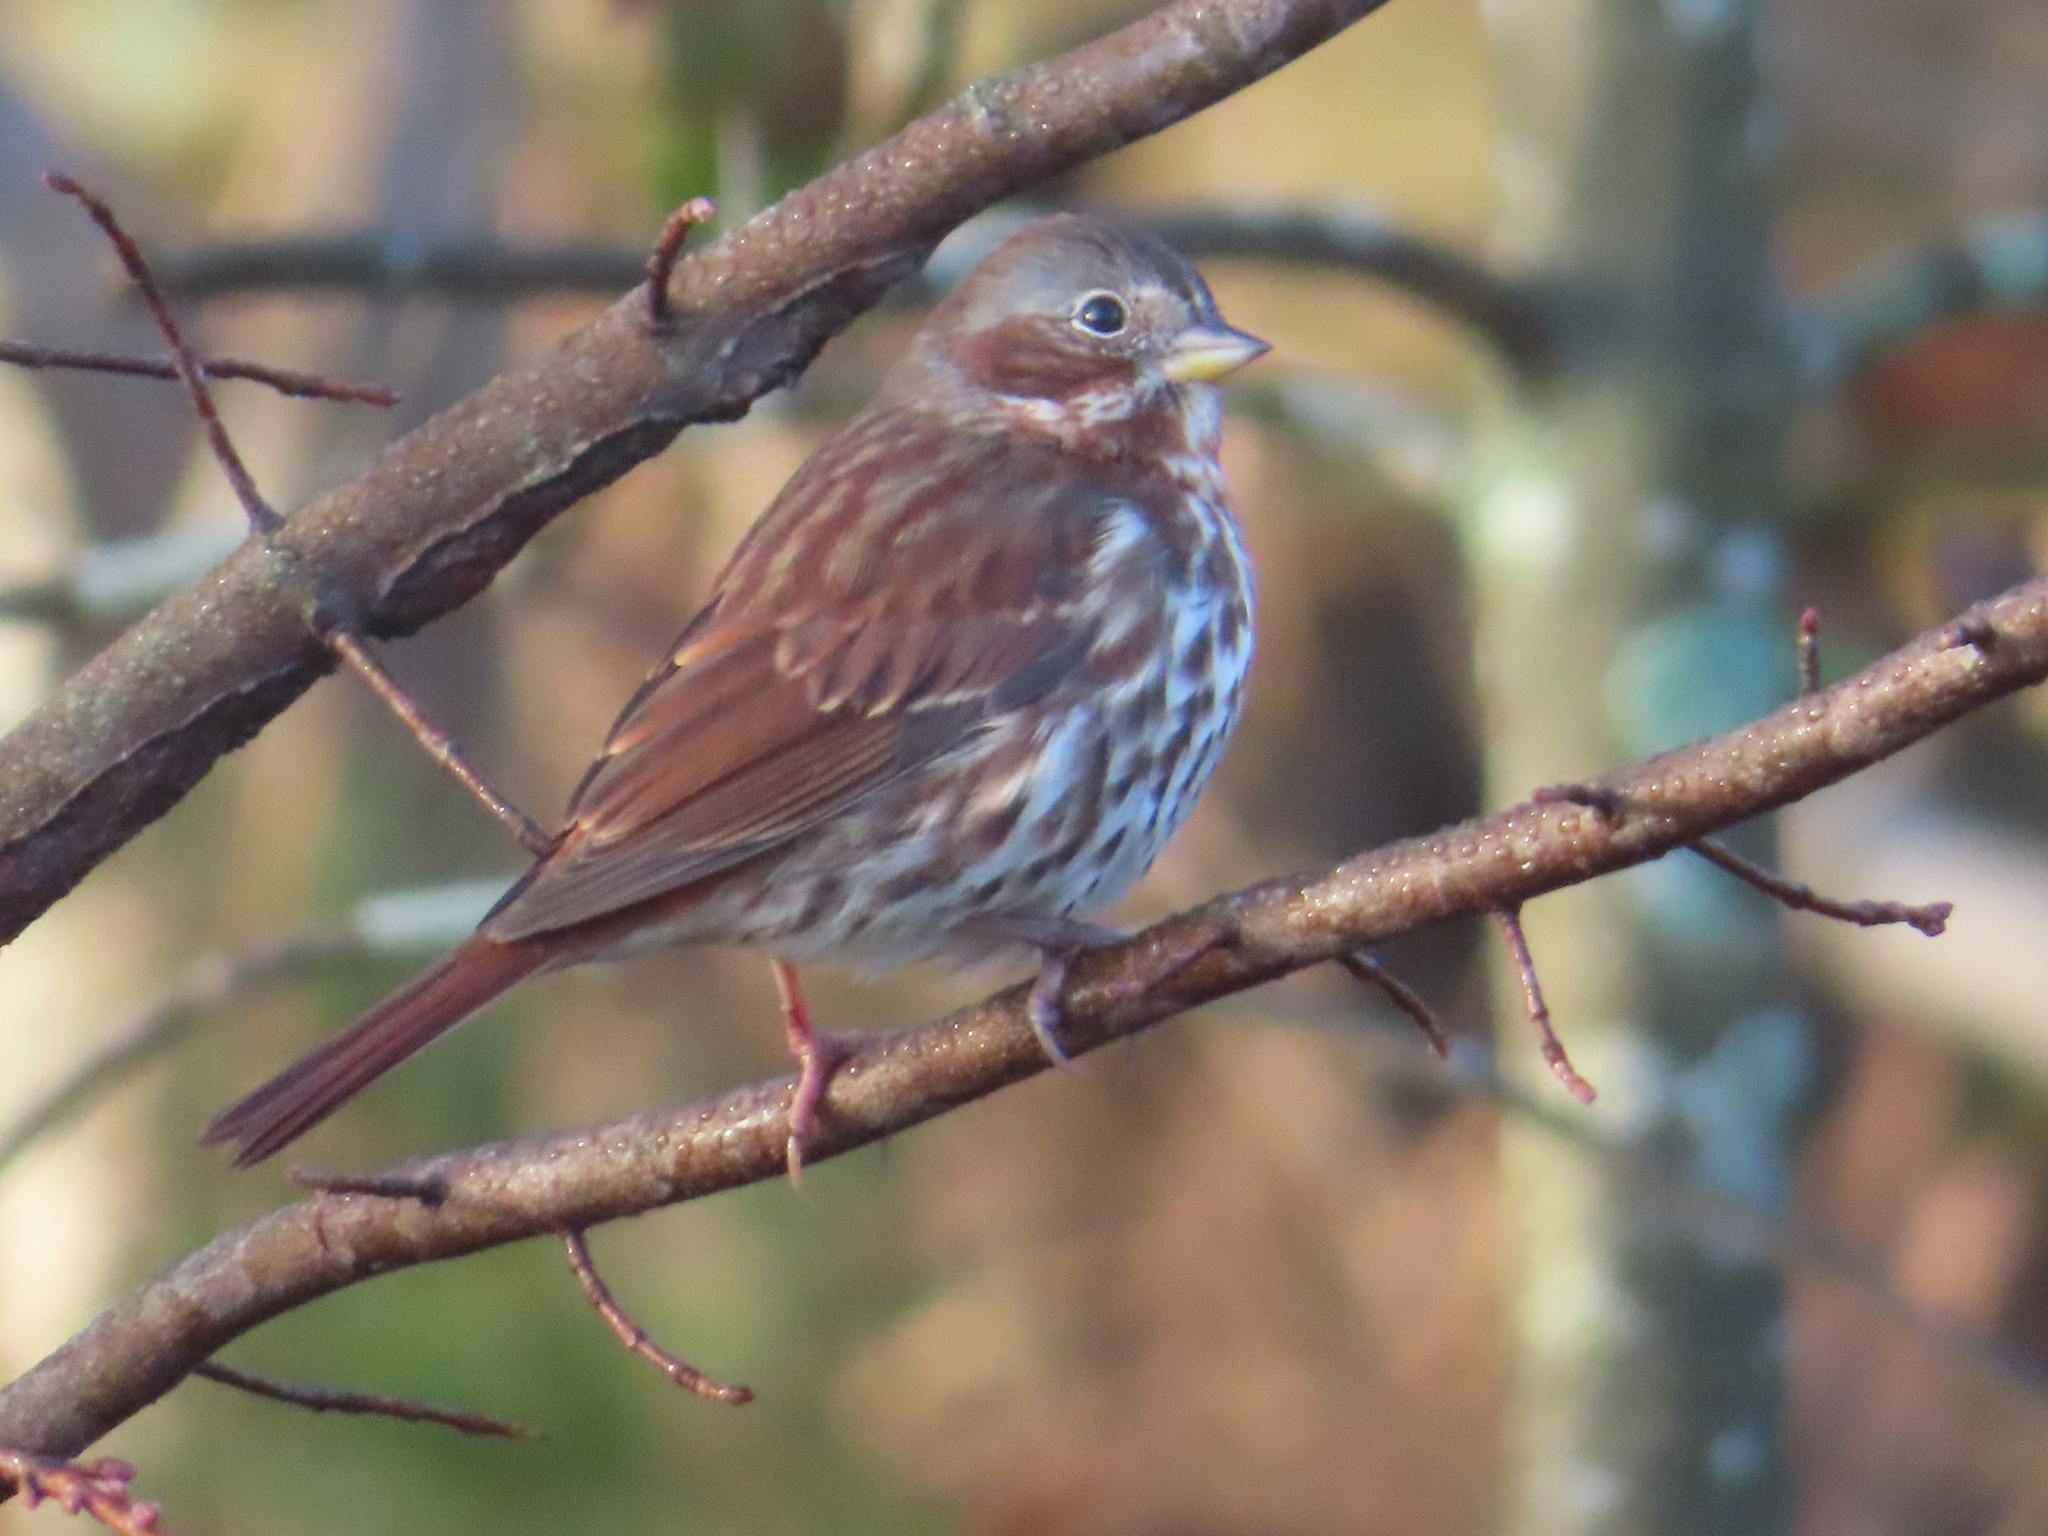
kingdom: Animalia
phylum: Chordata
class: Aves
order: Passeriformes
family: Passerellidae
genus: Passerella
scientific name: Passerella iliaca
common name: Fox sparrow
